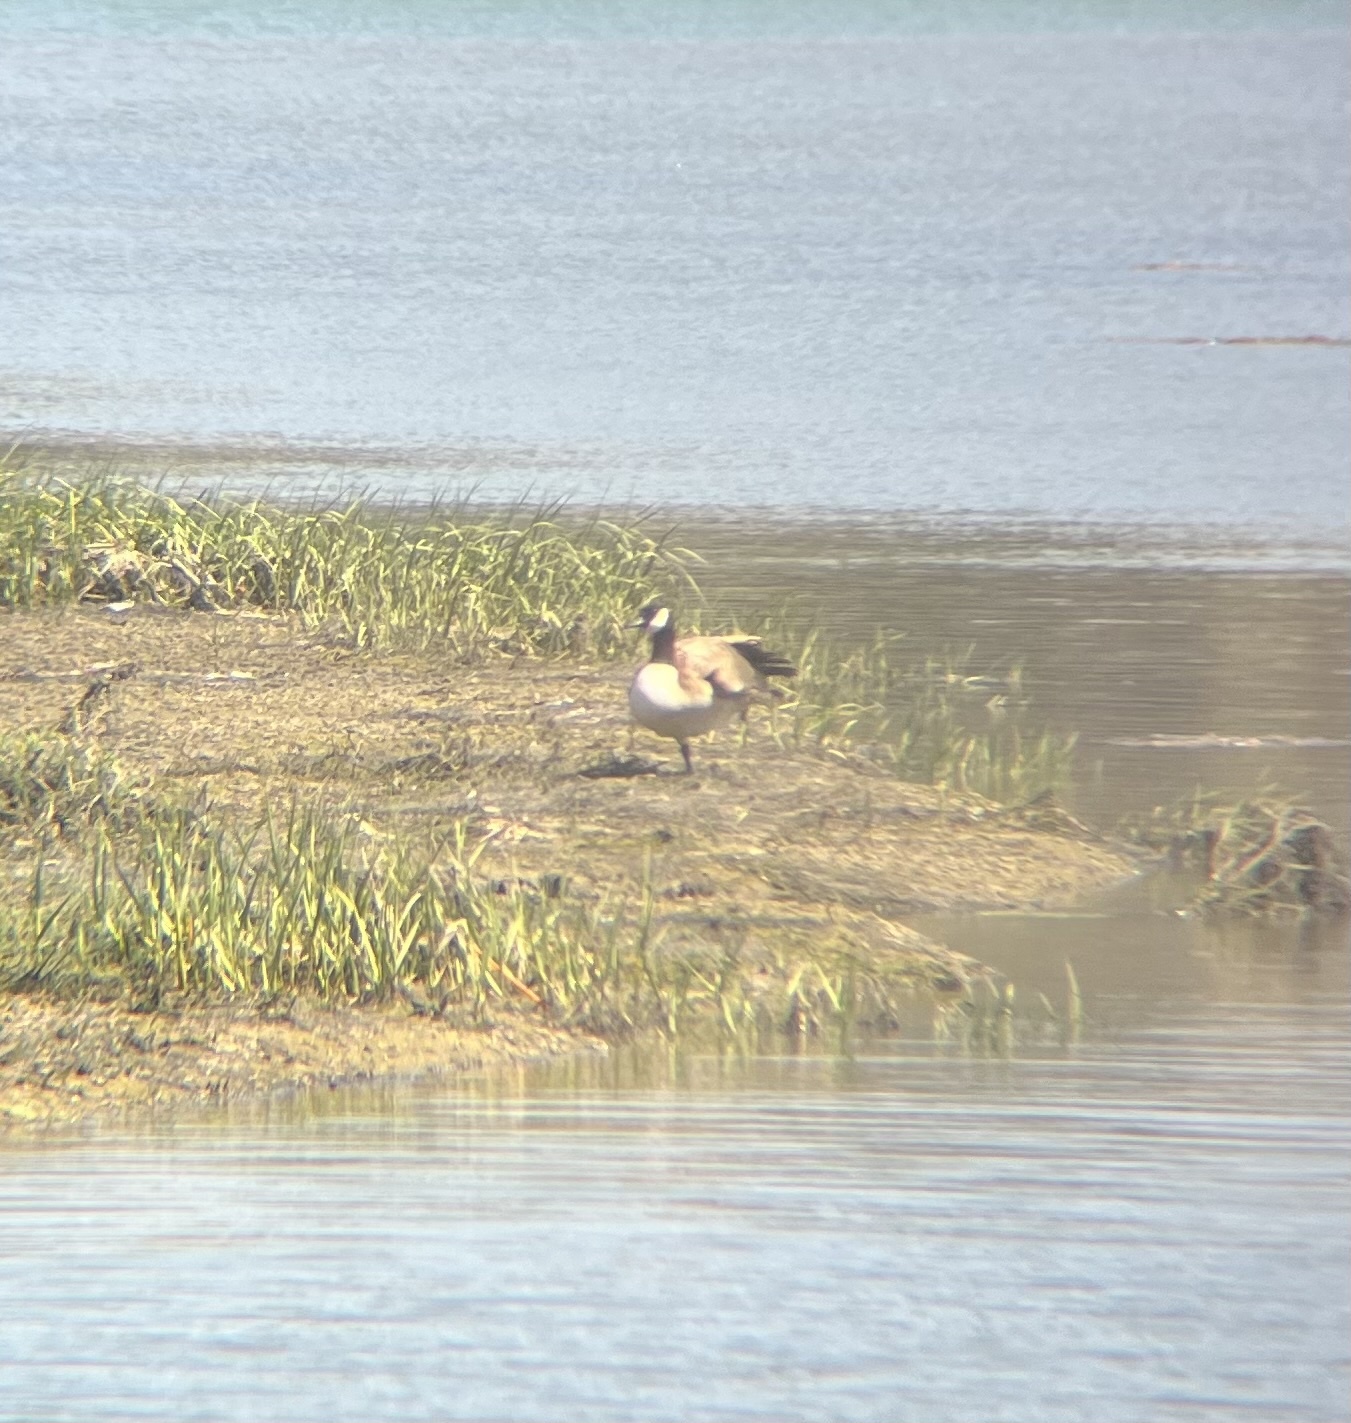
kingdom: Animalia
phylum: Chordata
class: Aves
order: Anseriformes
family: Anatidae
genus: Branta
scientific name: Branta canadensis
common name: Canada goose
